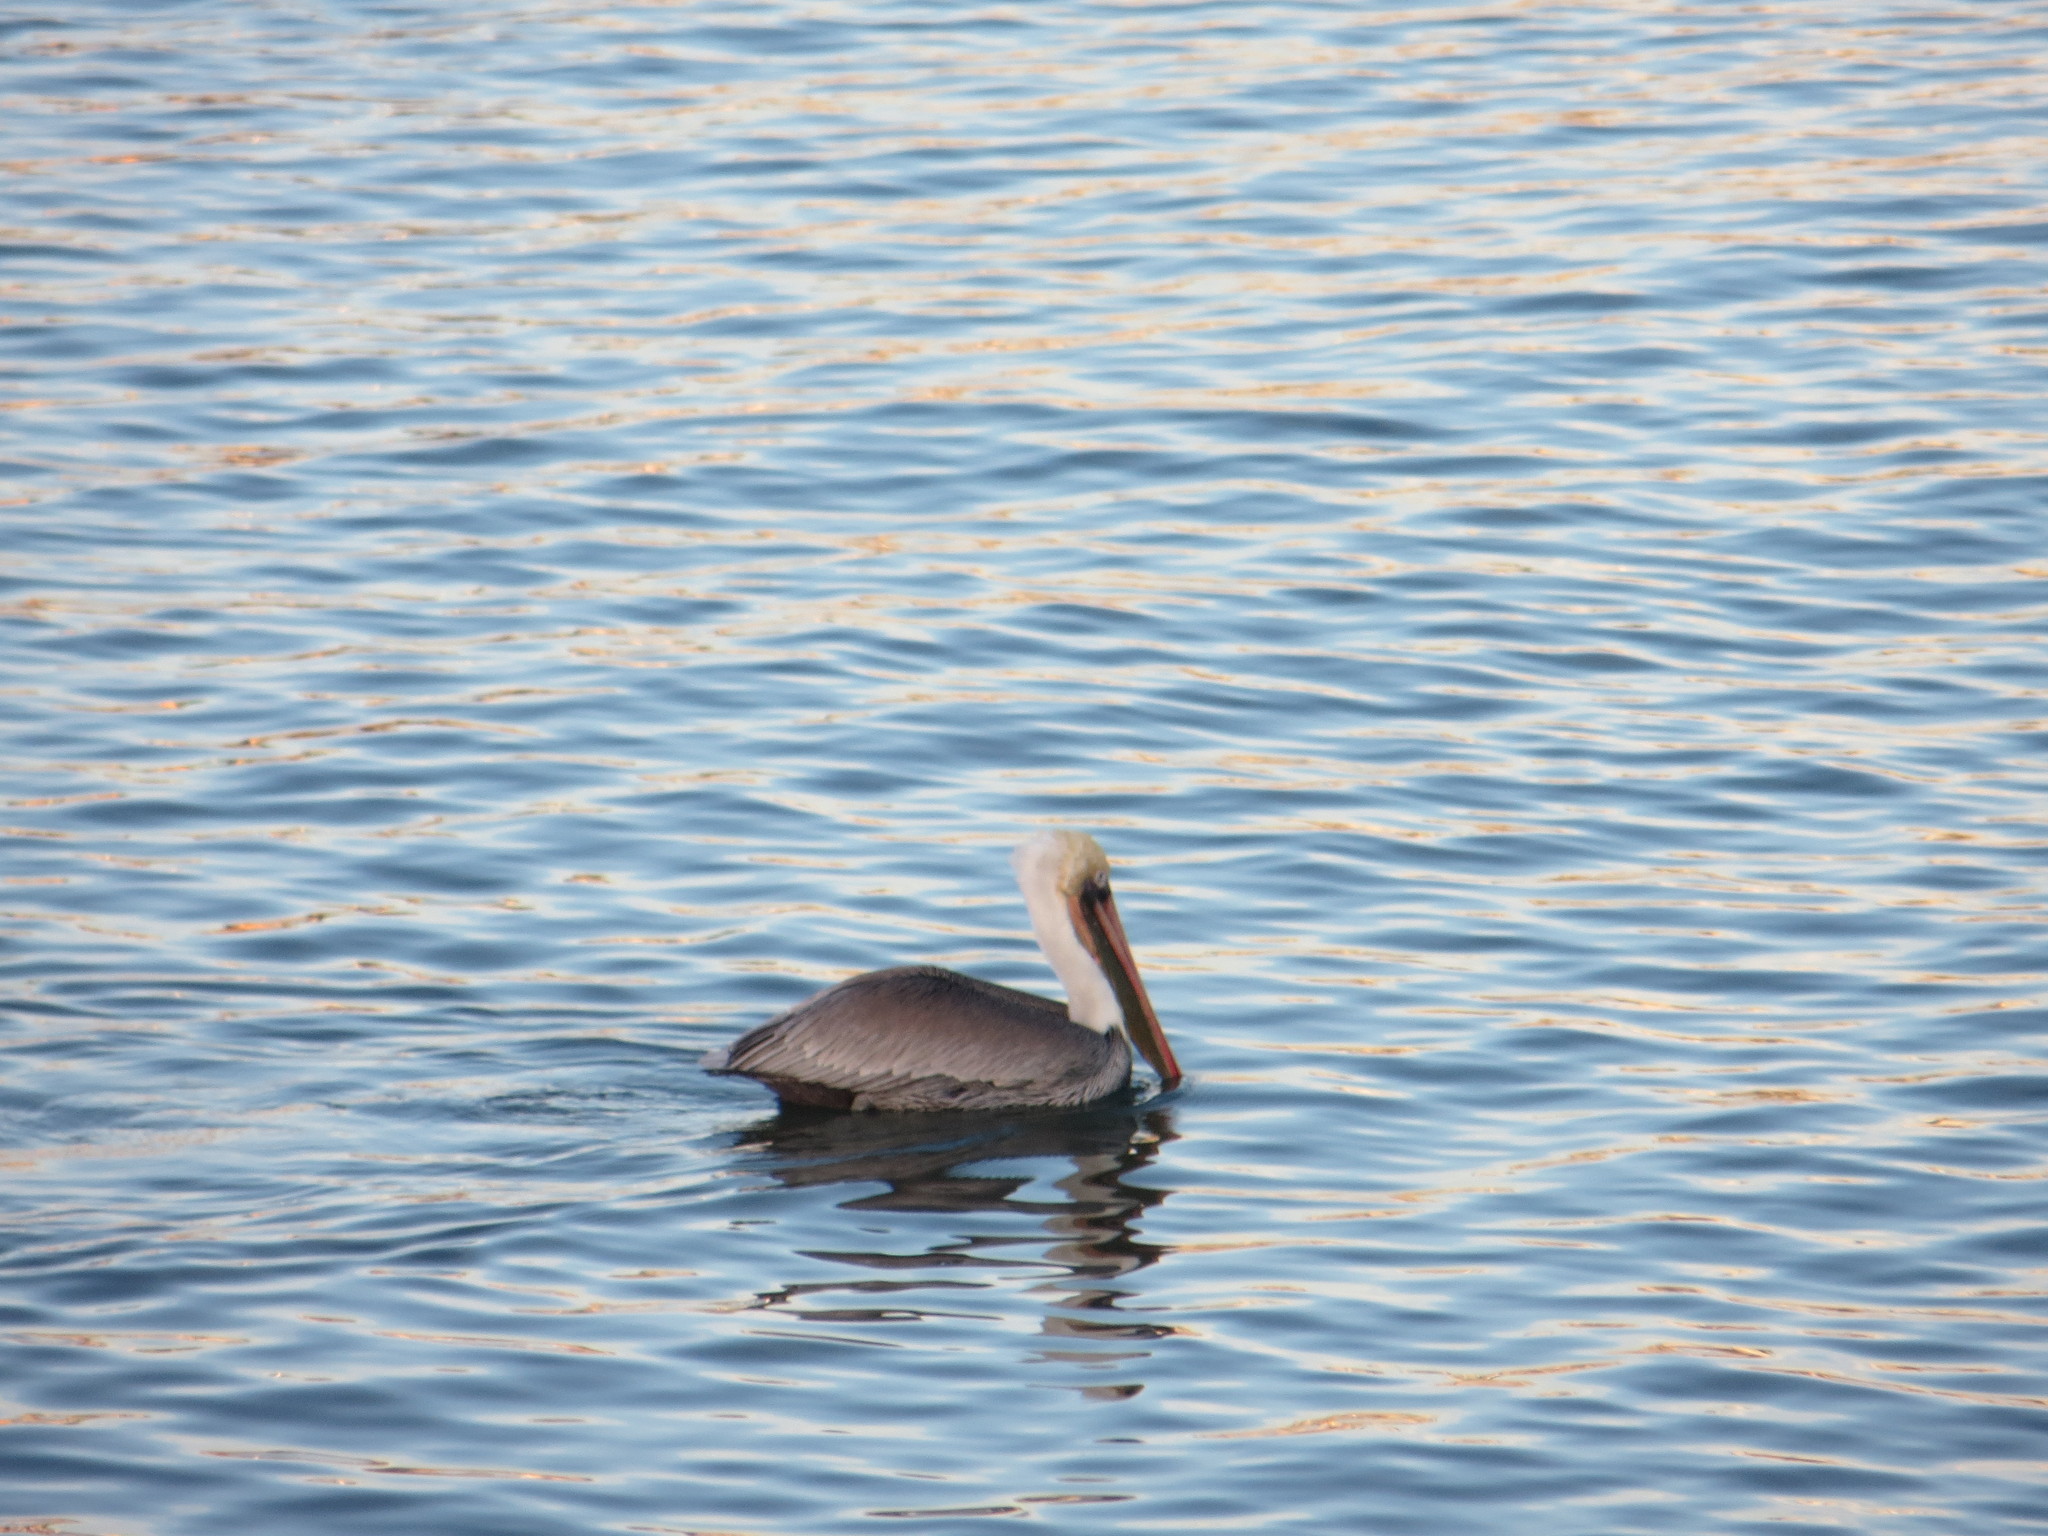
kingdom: Animalia
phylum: Chordata
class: Aves
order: Pelecaniformes
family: Pelecanidae
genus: Pelecanus
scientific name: Pelecanus occidentalis
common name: Brown pelican
